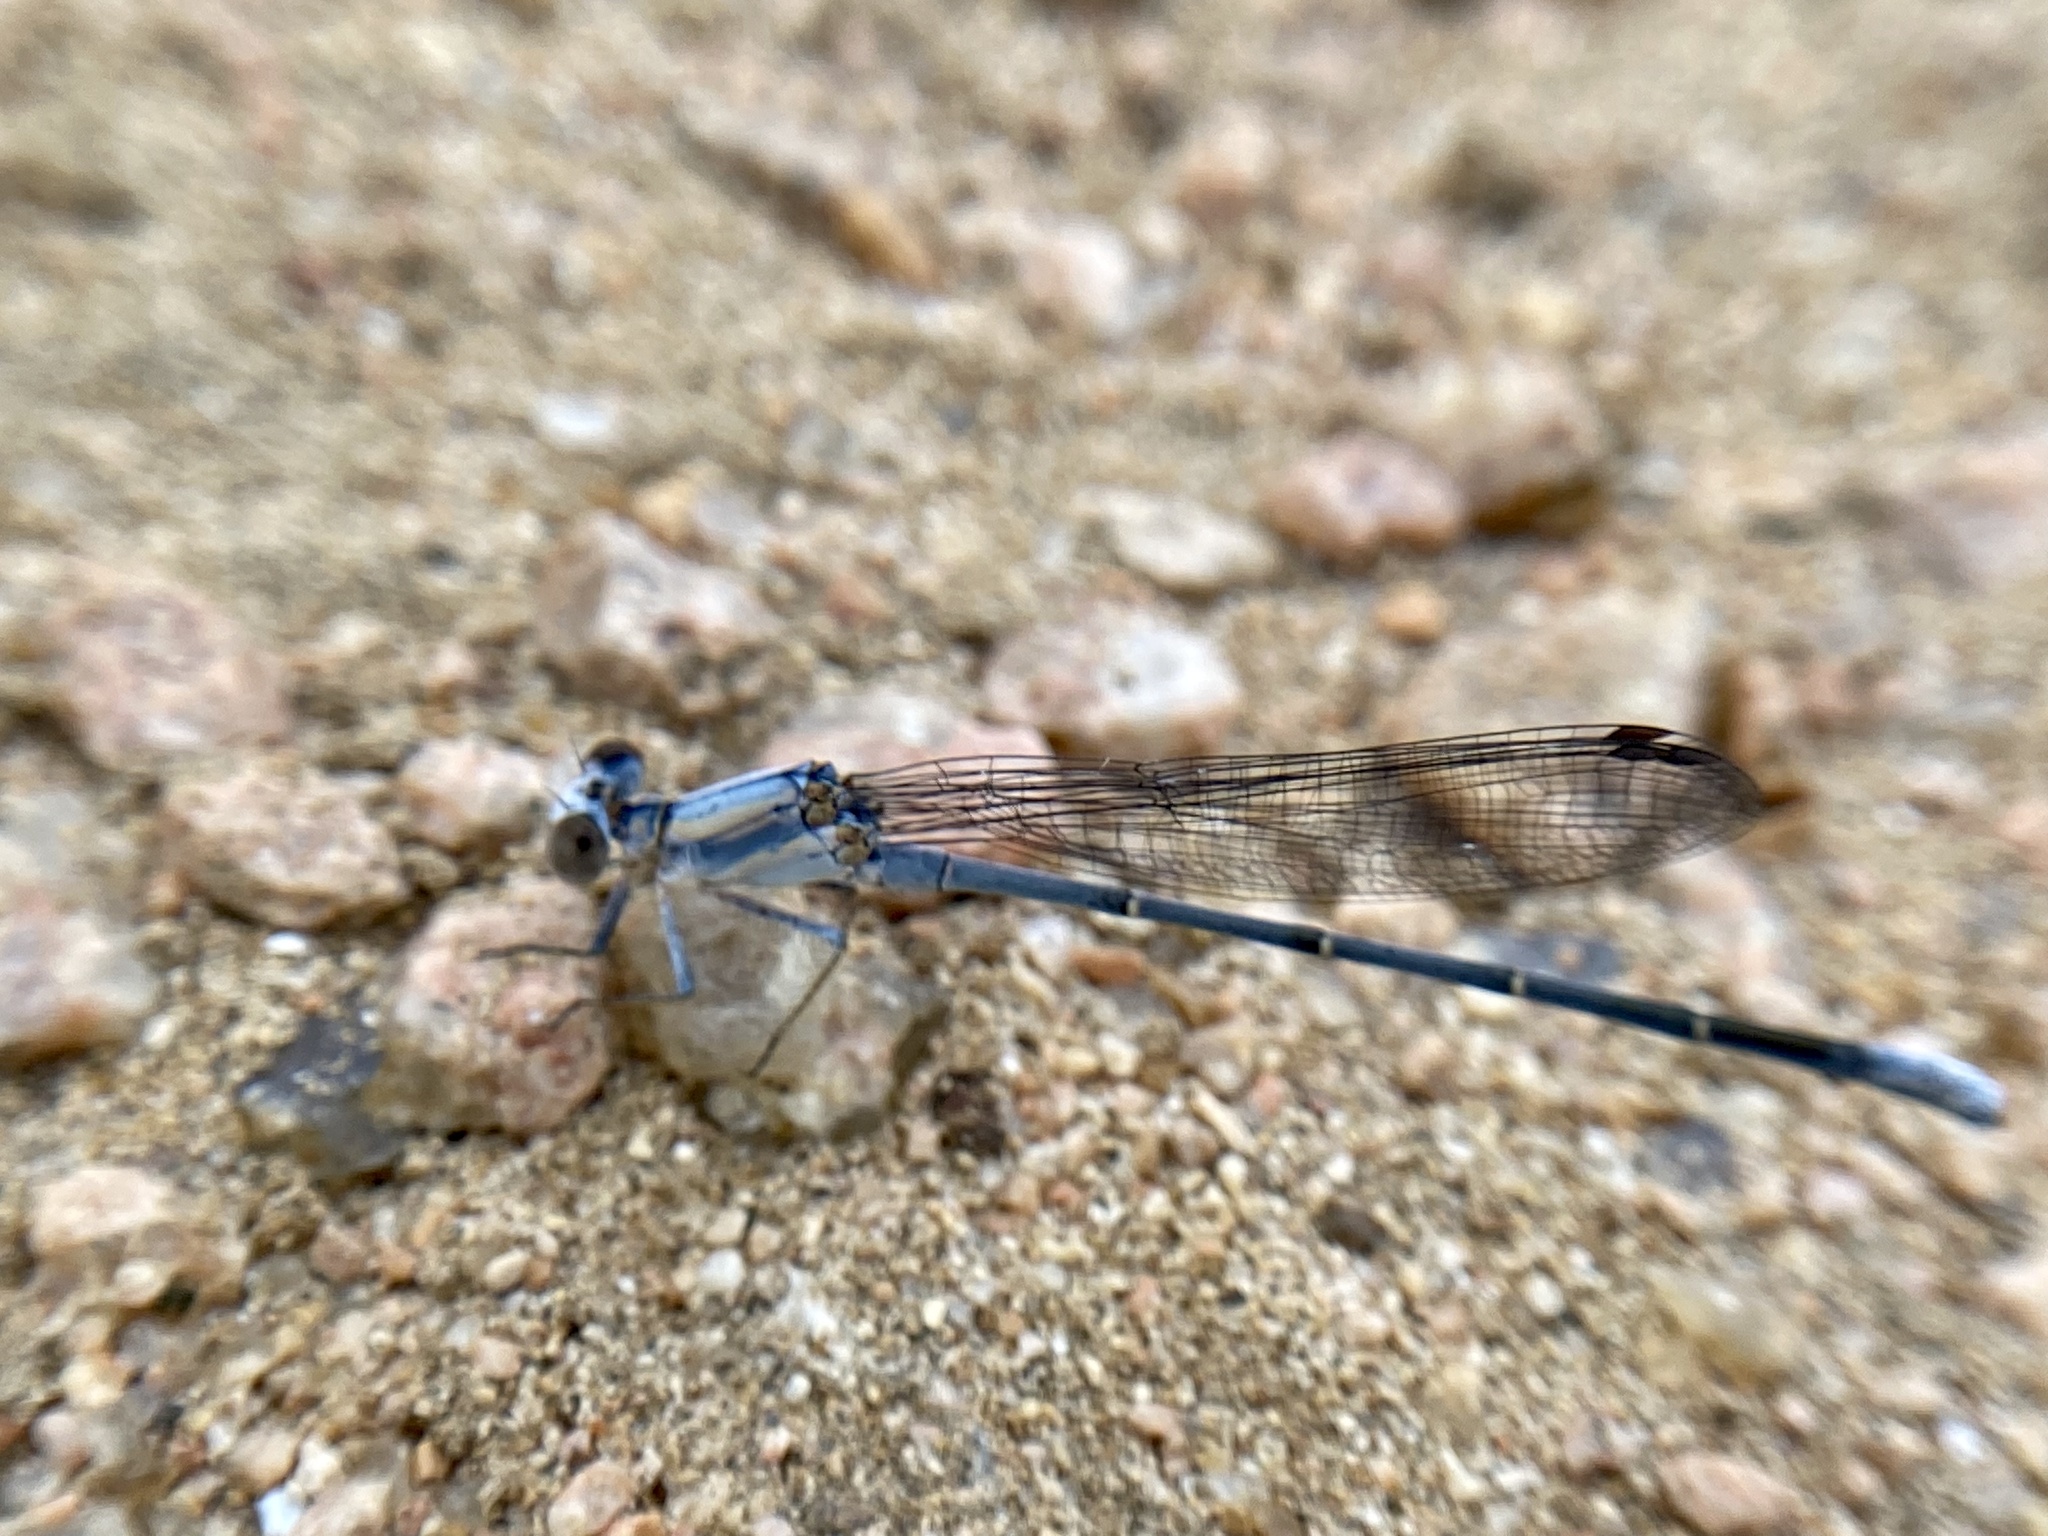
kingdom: Animalia
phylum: Arthropoda
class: Insecta
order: Odonata
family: Coenagrionidae
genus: Argia
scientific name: Argia moesta
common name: Powdered dancer
